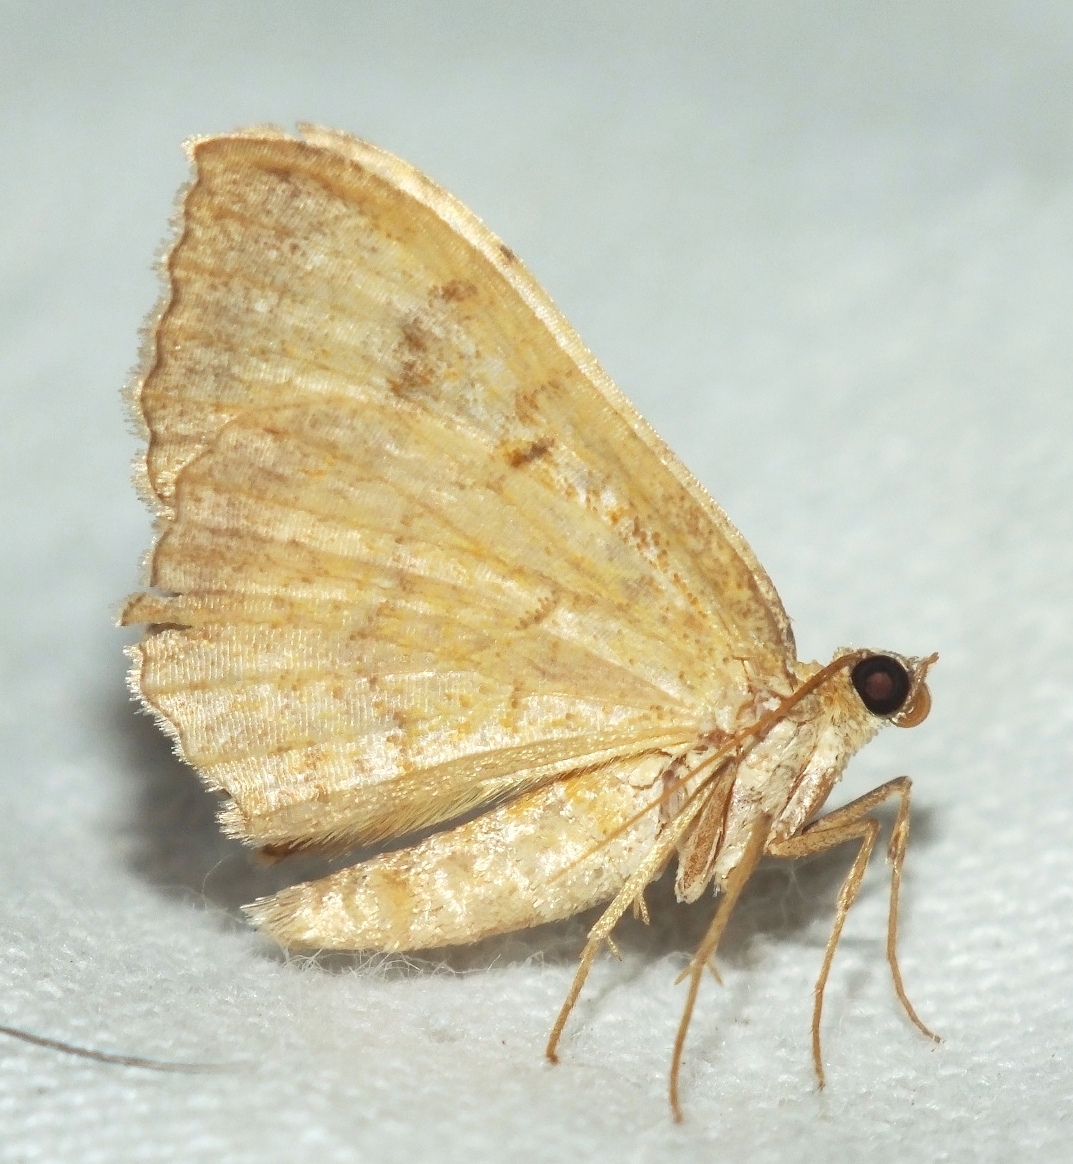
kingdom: Animalia
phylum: Arthropoda
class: Insecta
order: Lepidoptera
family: Geometridae
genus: Camptogramma
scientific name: Camptogramma bilineata
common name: Yellow shell
